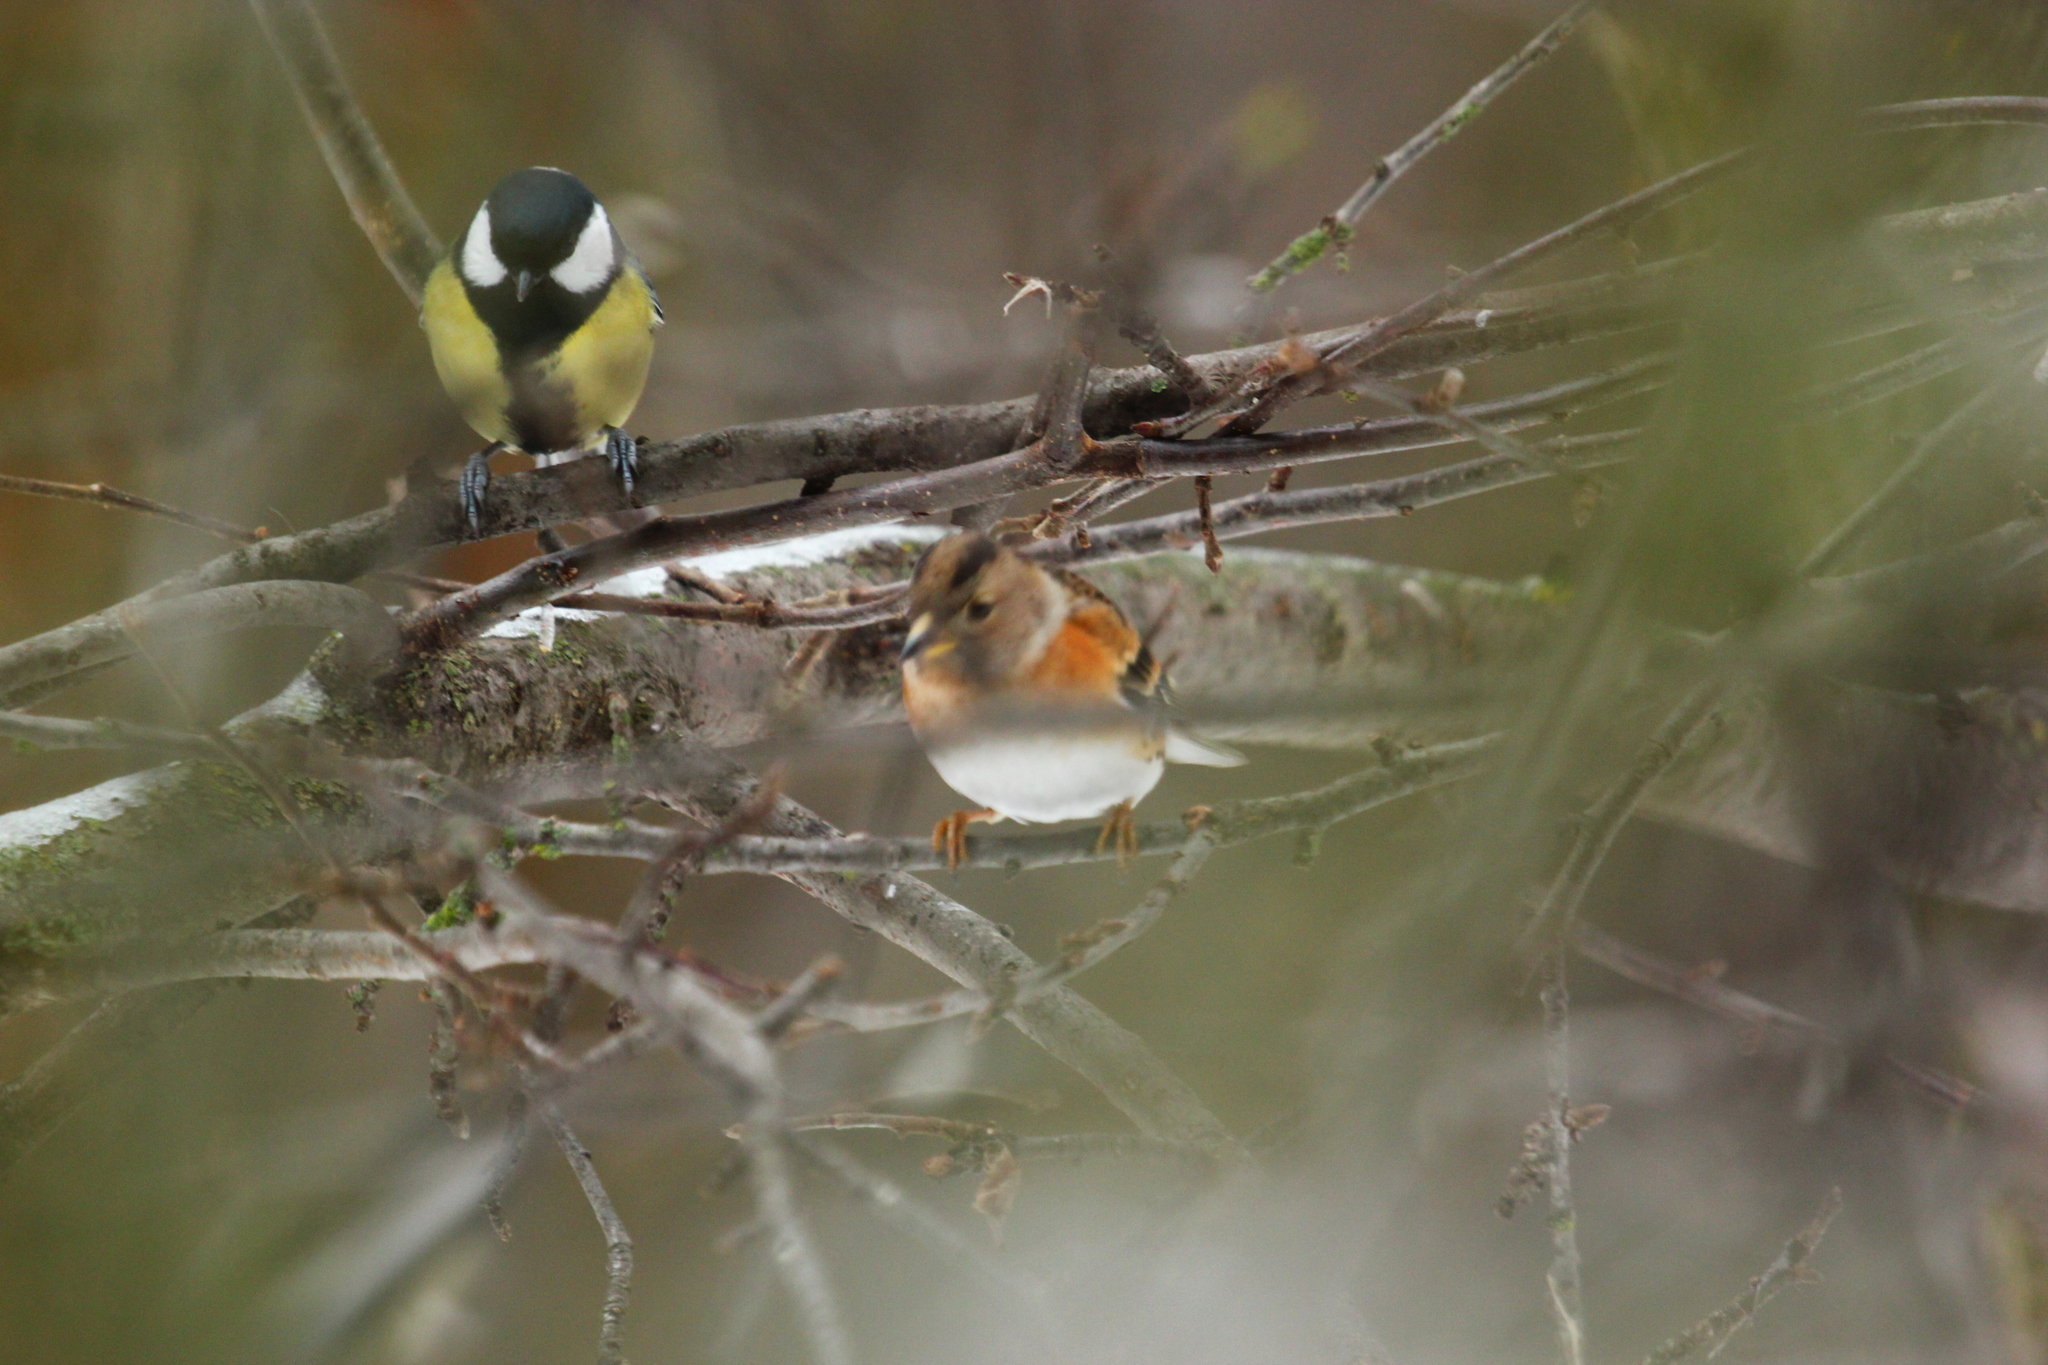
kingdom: Animalia
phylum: Chordata
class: Aves
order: Passeriformes
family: Fringillidae
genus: Fringilla
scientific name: Fringilla montifringilla
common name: Brambling
